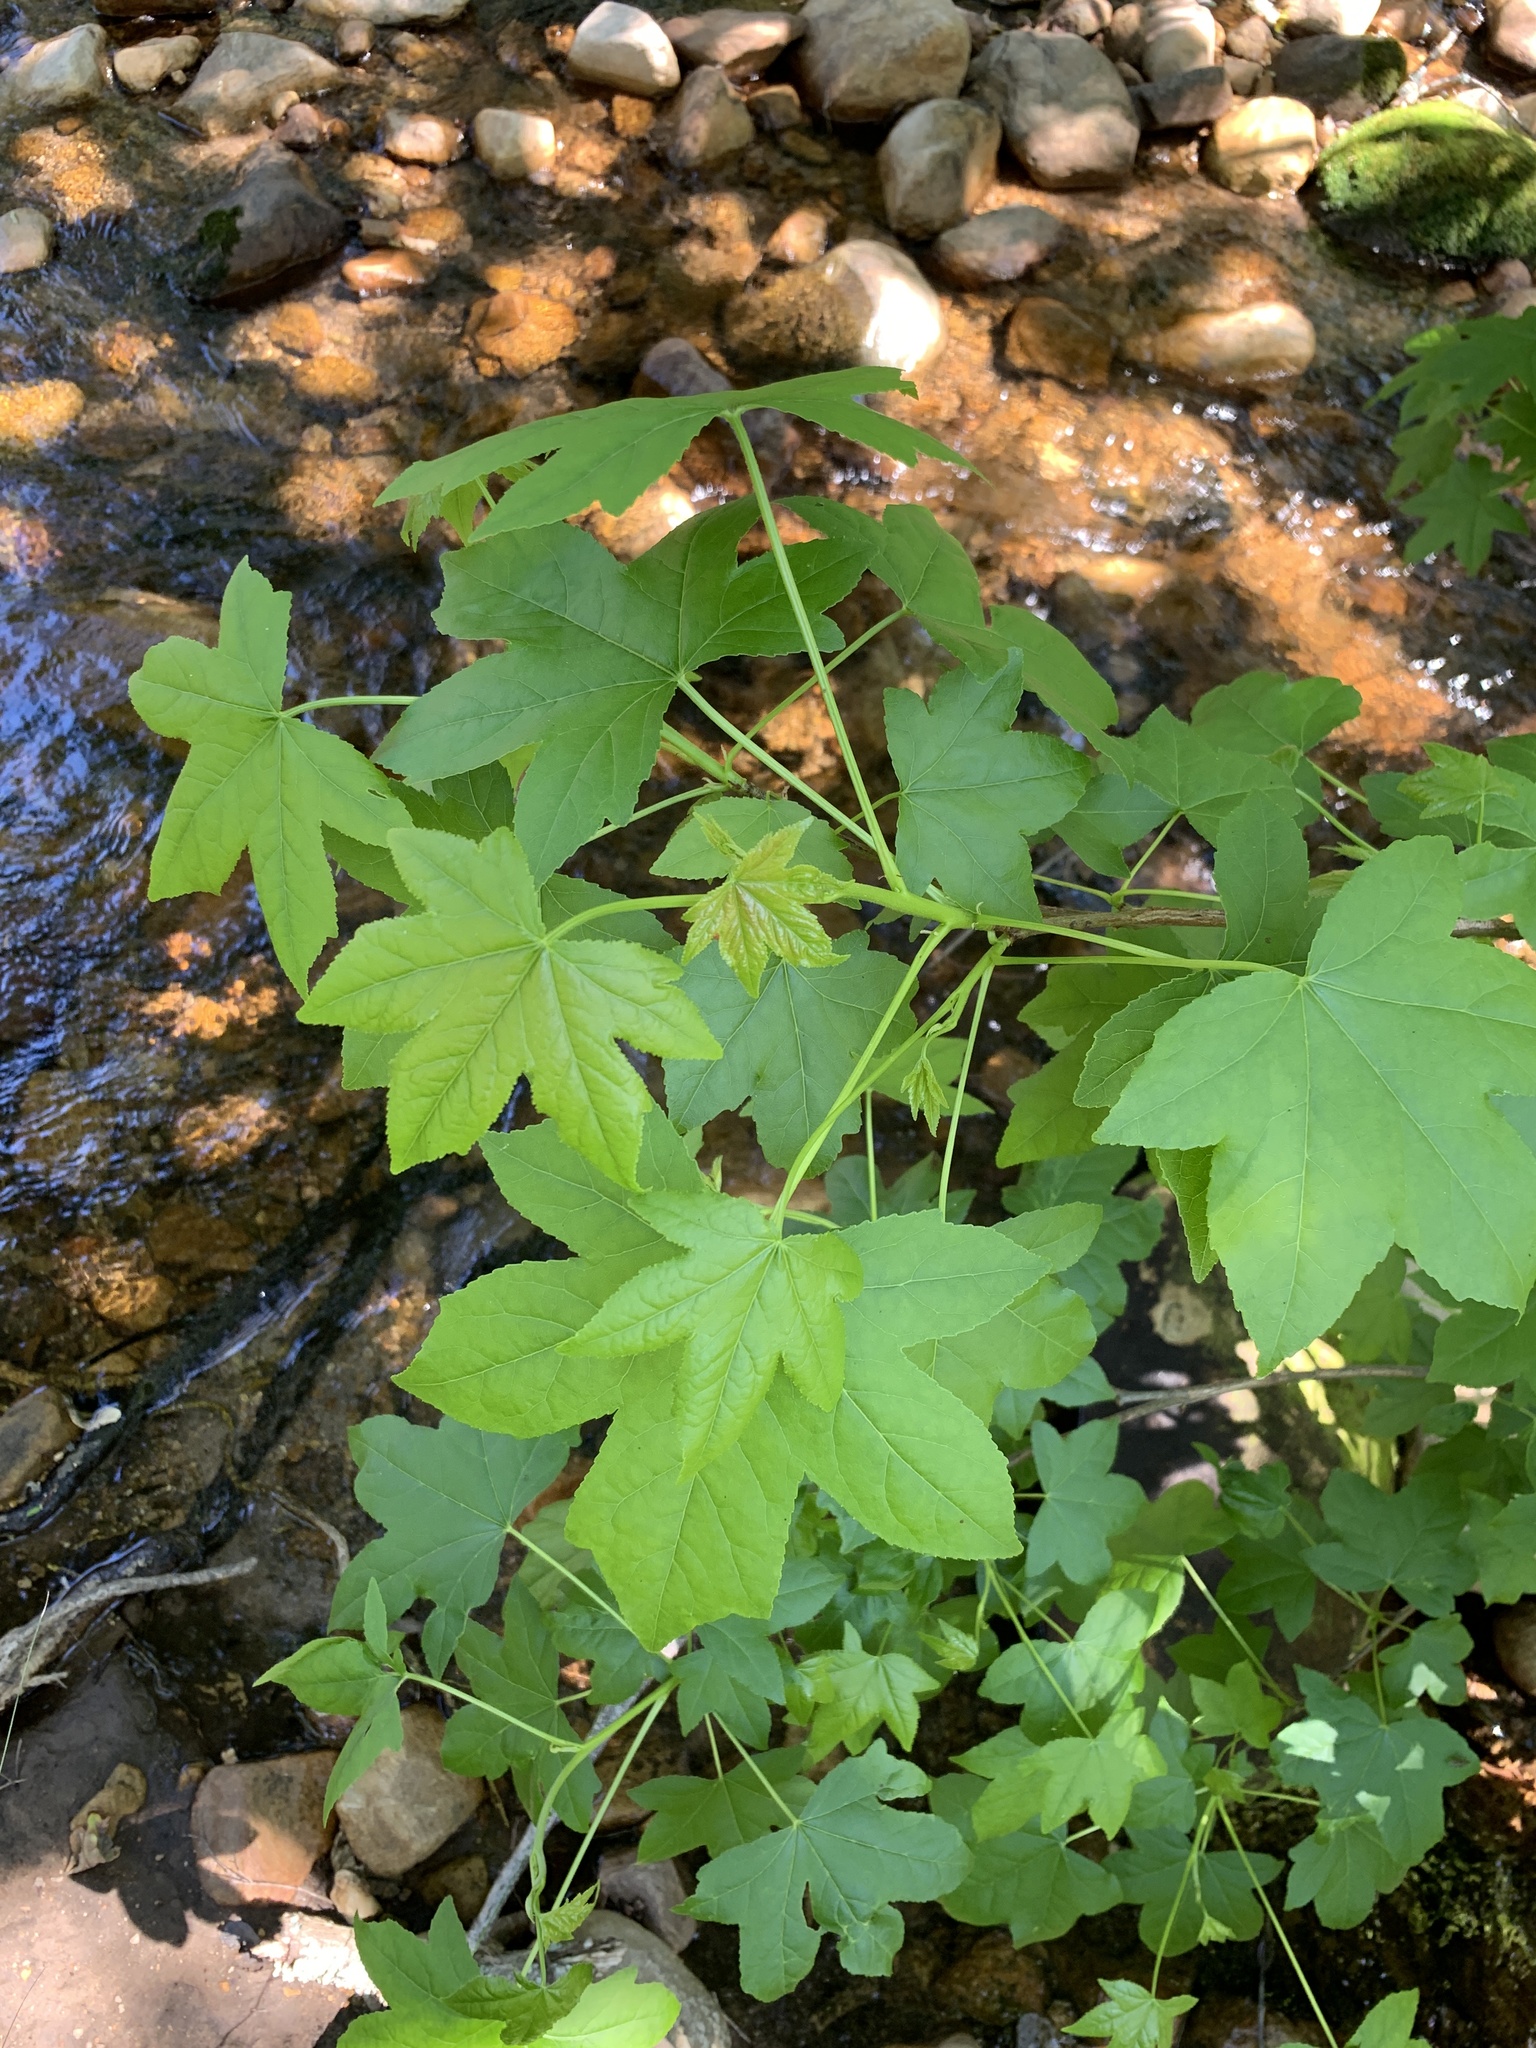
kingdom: Plantae
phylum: Tracheophyta
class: Magnoliopsida
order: Saxifragales
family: Altingiaceae
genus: Liquidambar
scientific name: Liquidambar styraciflua
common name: Sweet gum
